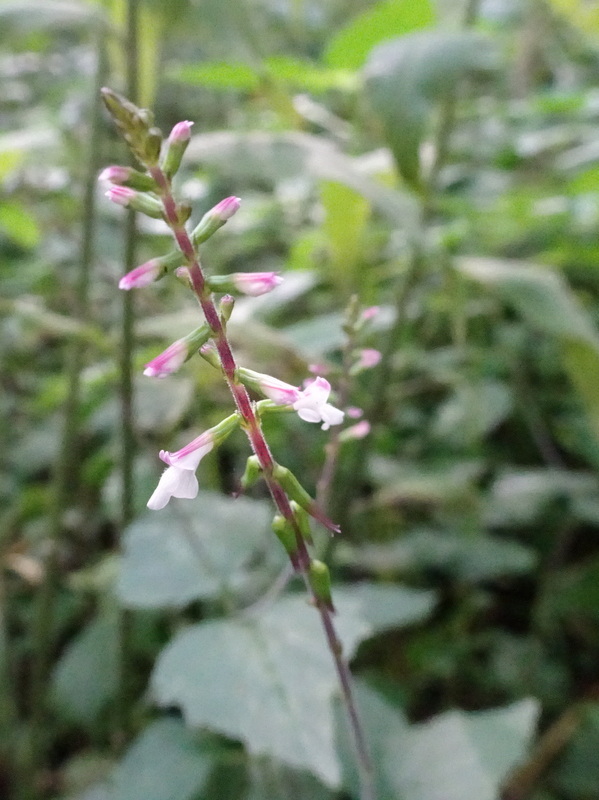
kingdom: Plantae
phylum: Tracheophyta
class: Magnoliopsida
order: Lamiales
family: Phrymaceae
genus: Phryma
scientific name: Phryma leptostachya
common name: American lopseed
